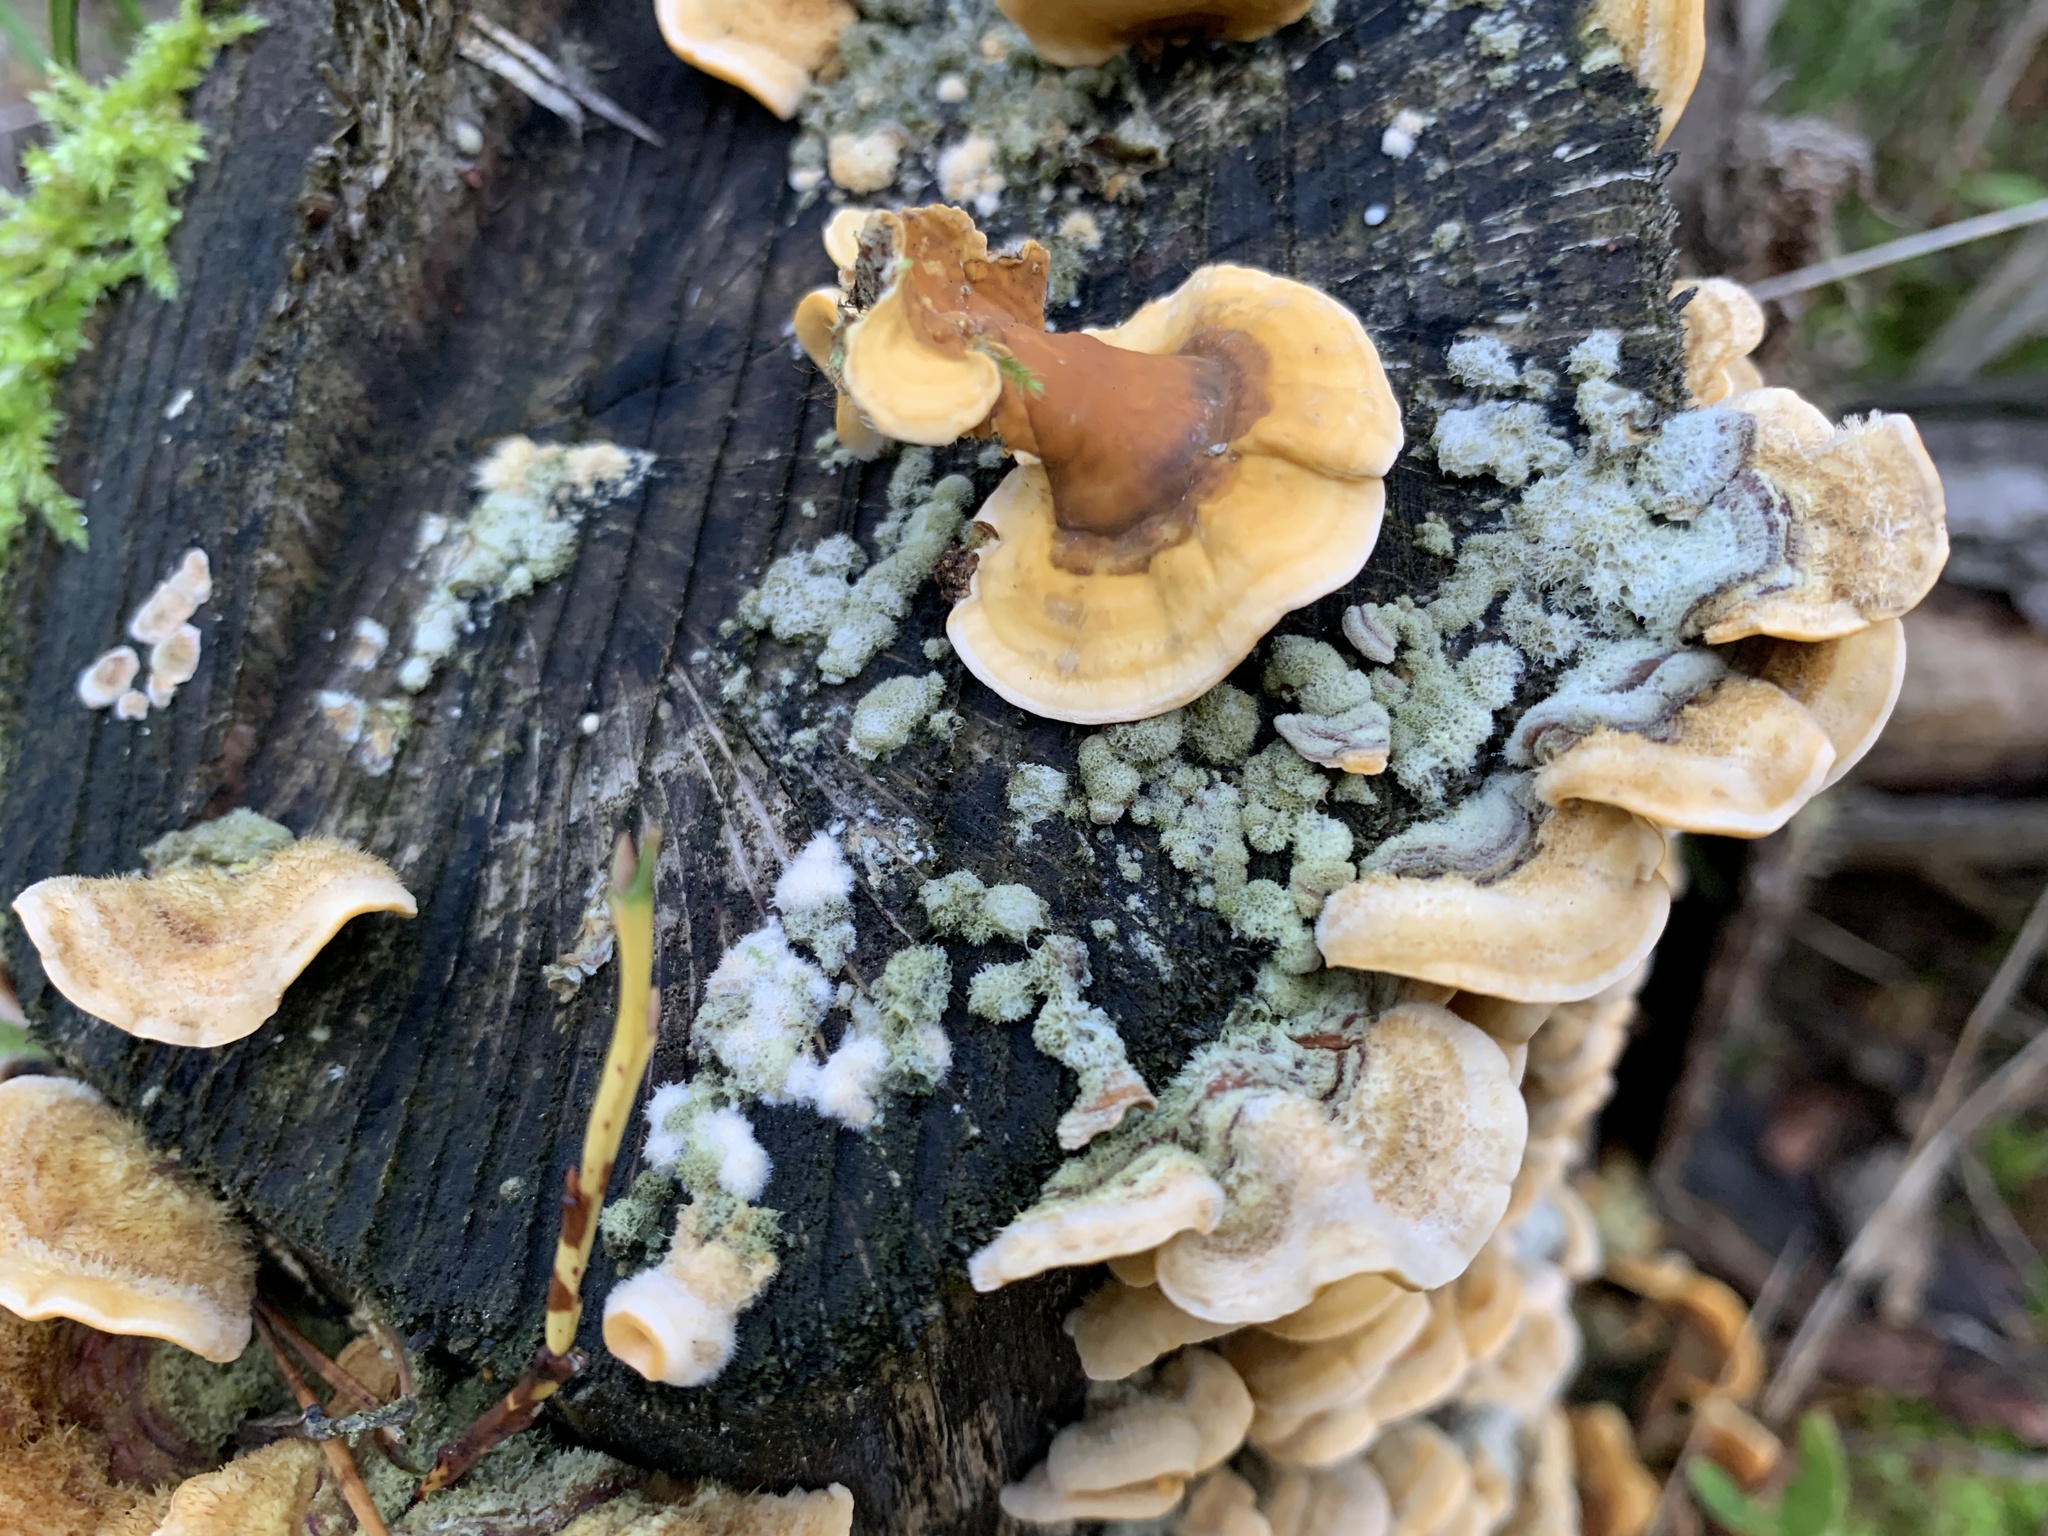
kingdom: Fungi
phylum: Basidiomycota
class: Agaricomycetes
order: Russulales
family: Stereaceae
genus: Stereum
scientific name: Stereum hirsutum
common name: Hairy curtain crust
